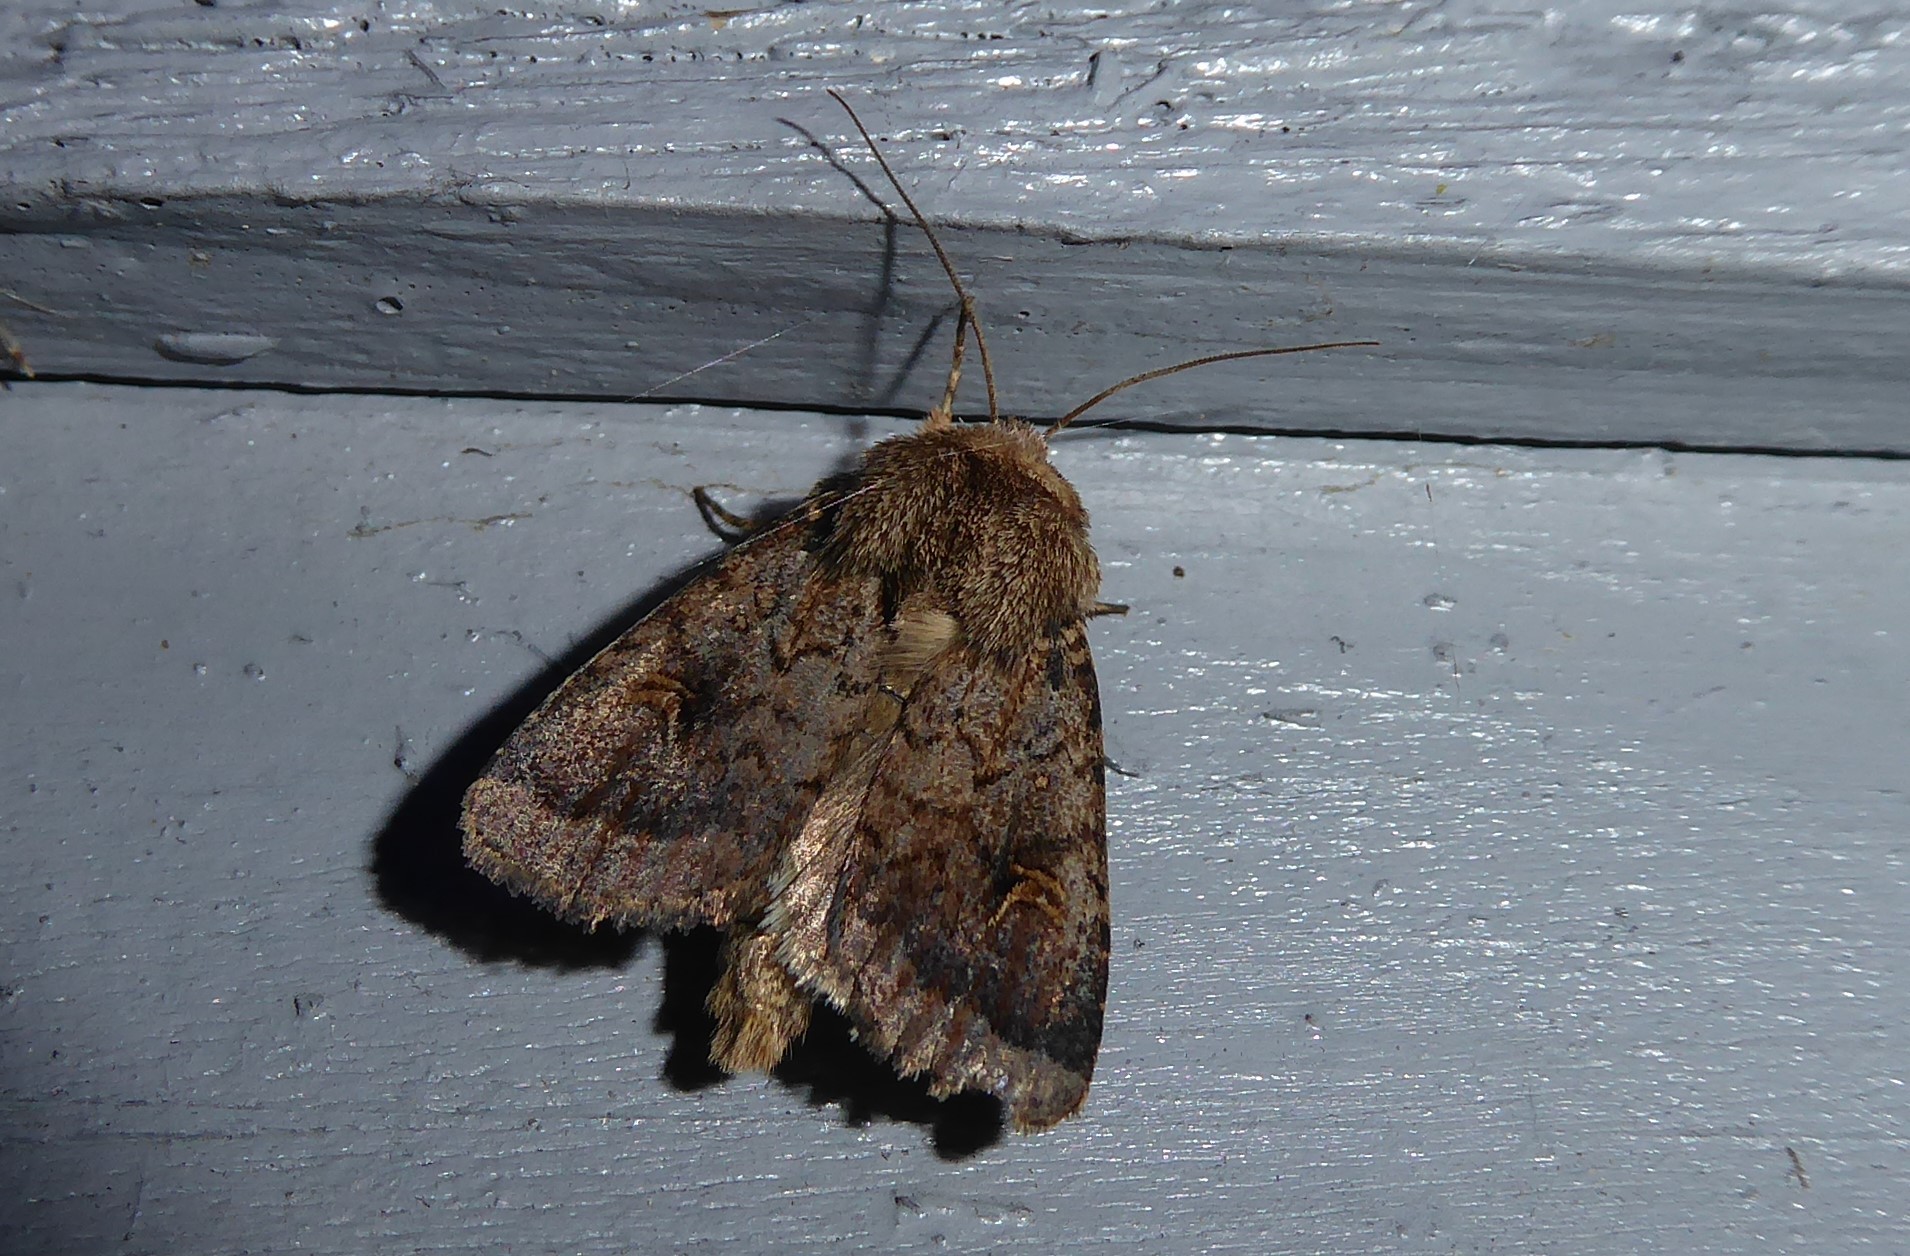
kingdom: Animalia
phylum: Arthropoda
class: Insecta
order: Lepidoptera
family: Noctuidae
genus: Proteuxoa
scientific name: Proteuxoa tetronycha
